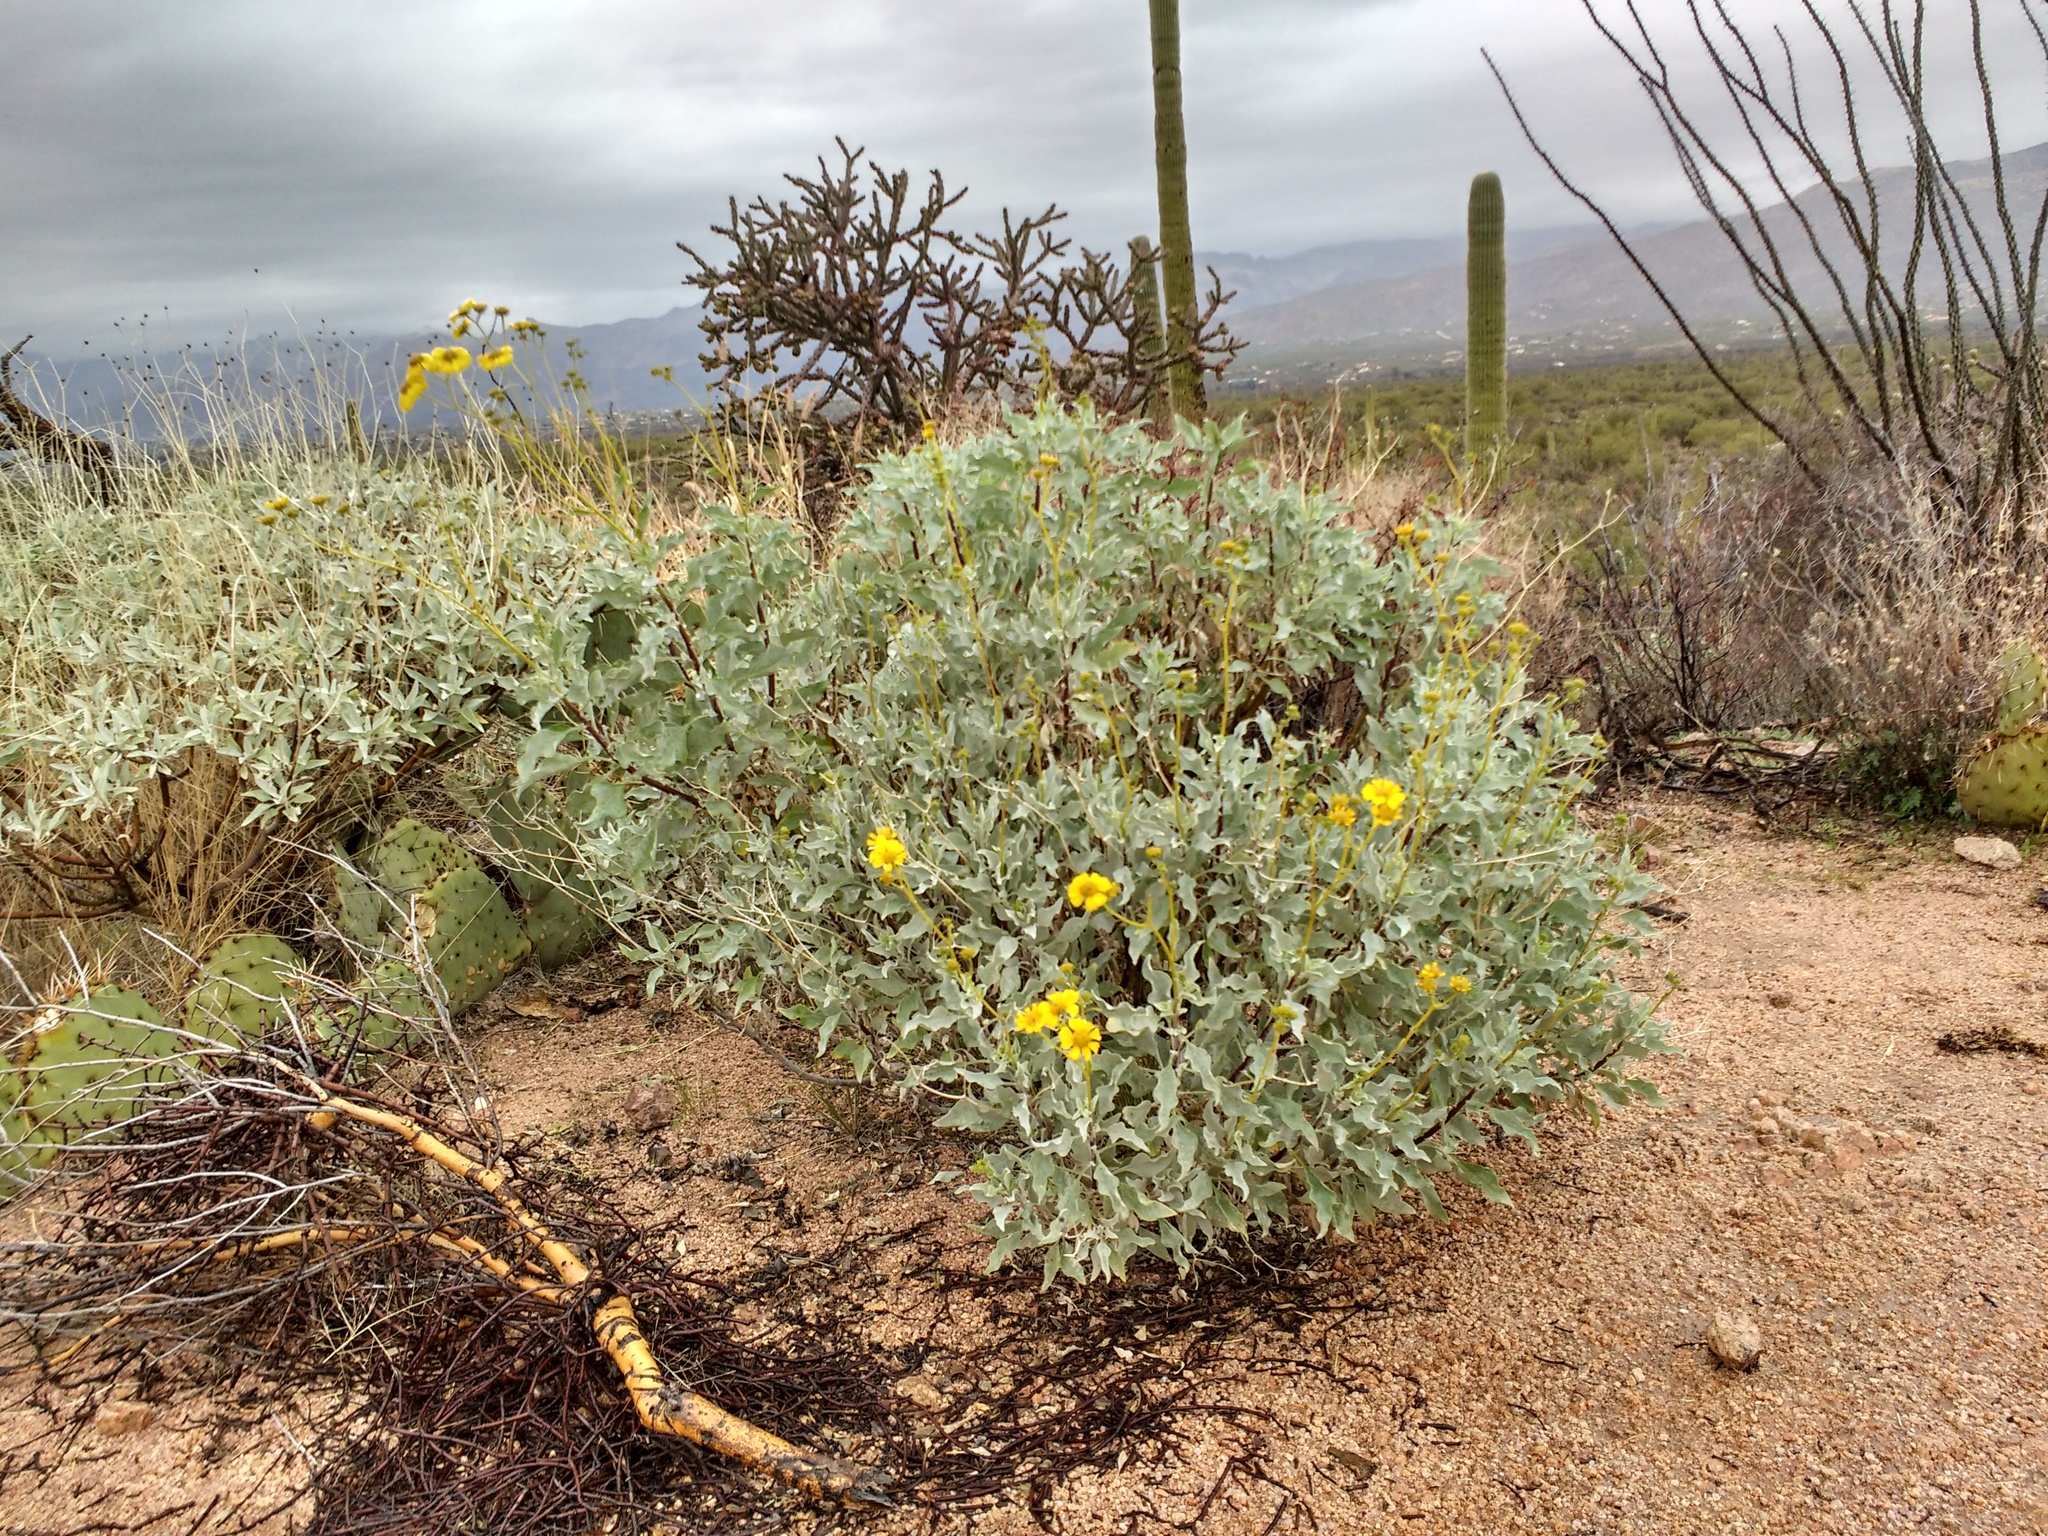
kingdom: Plantae
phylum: Tracheophyta
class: Magnoliopsida
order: Asterales
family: Asteraceae
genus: Encelia
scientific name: Encelia farinosa
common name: Brittlebush
